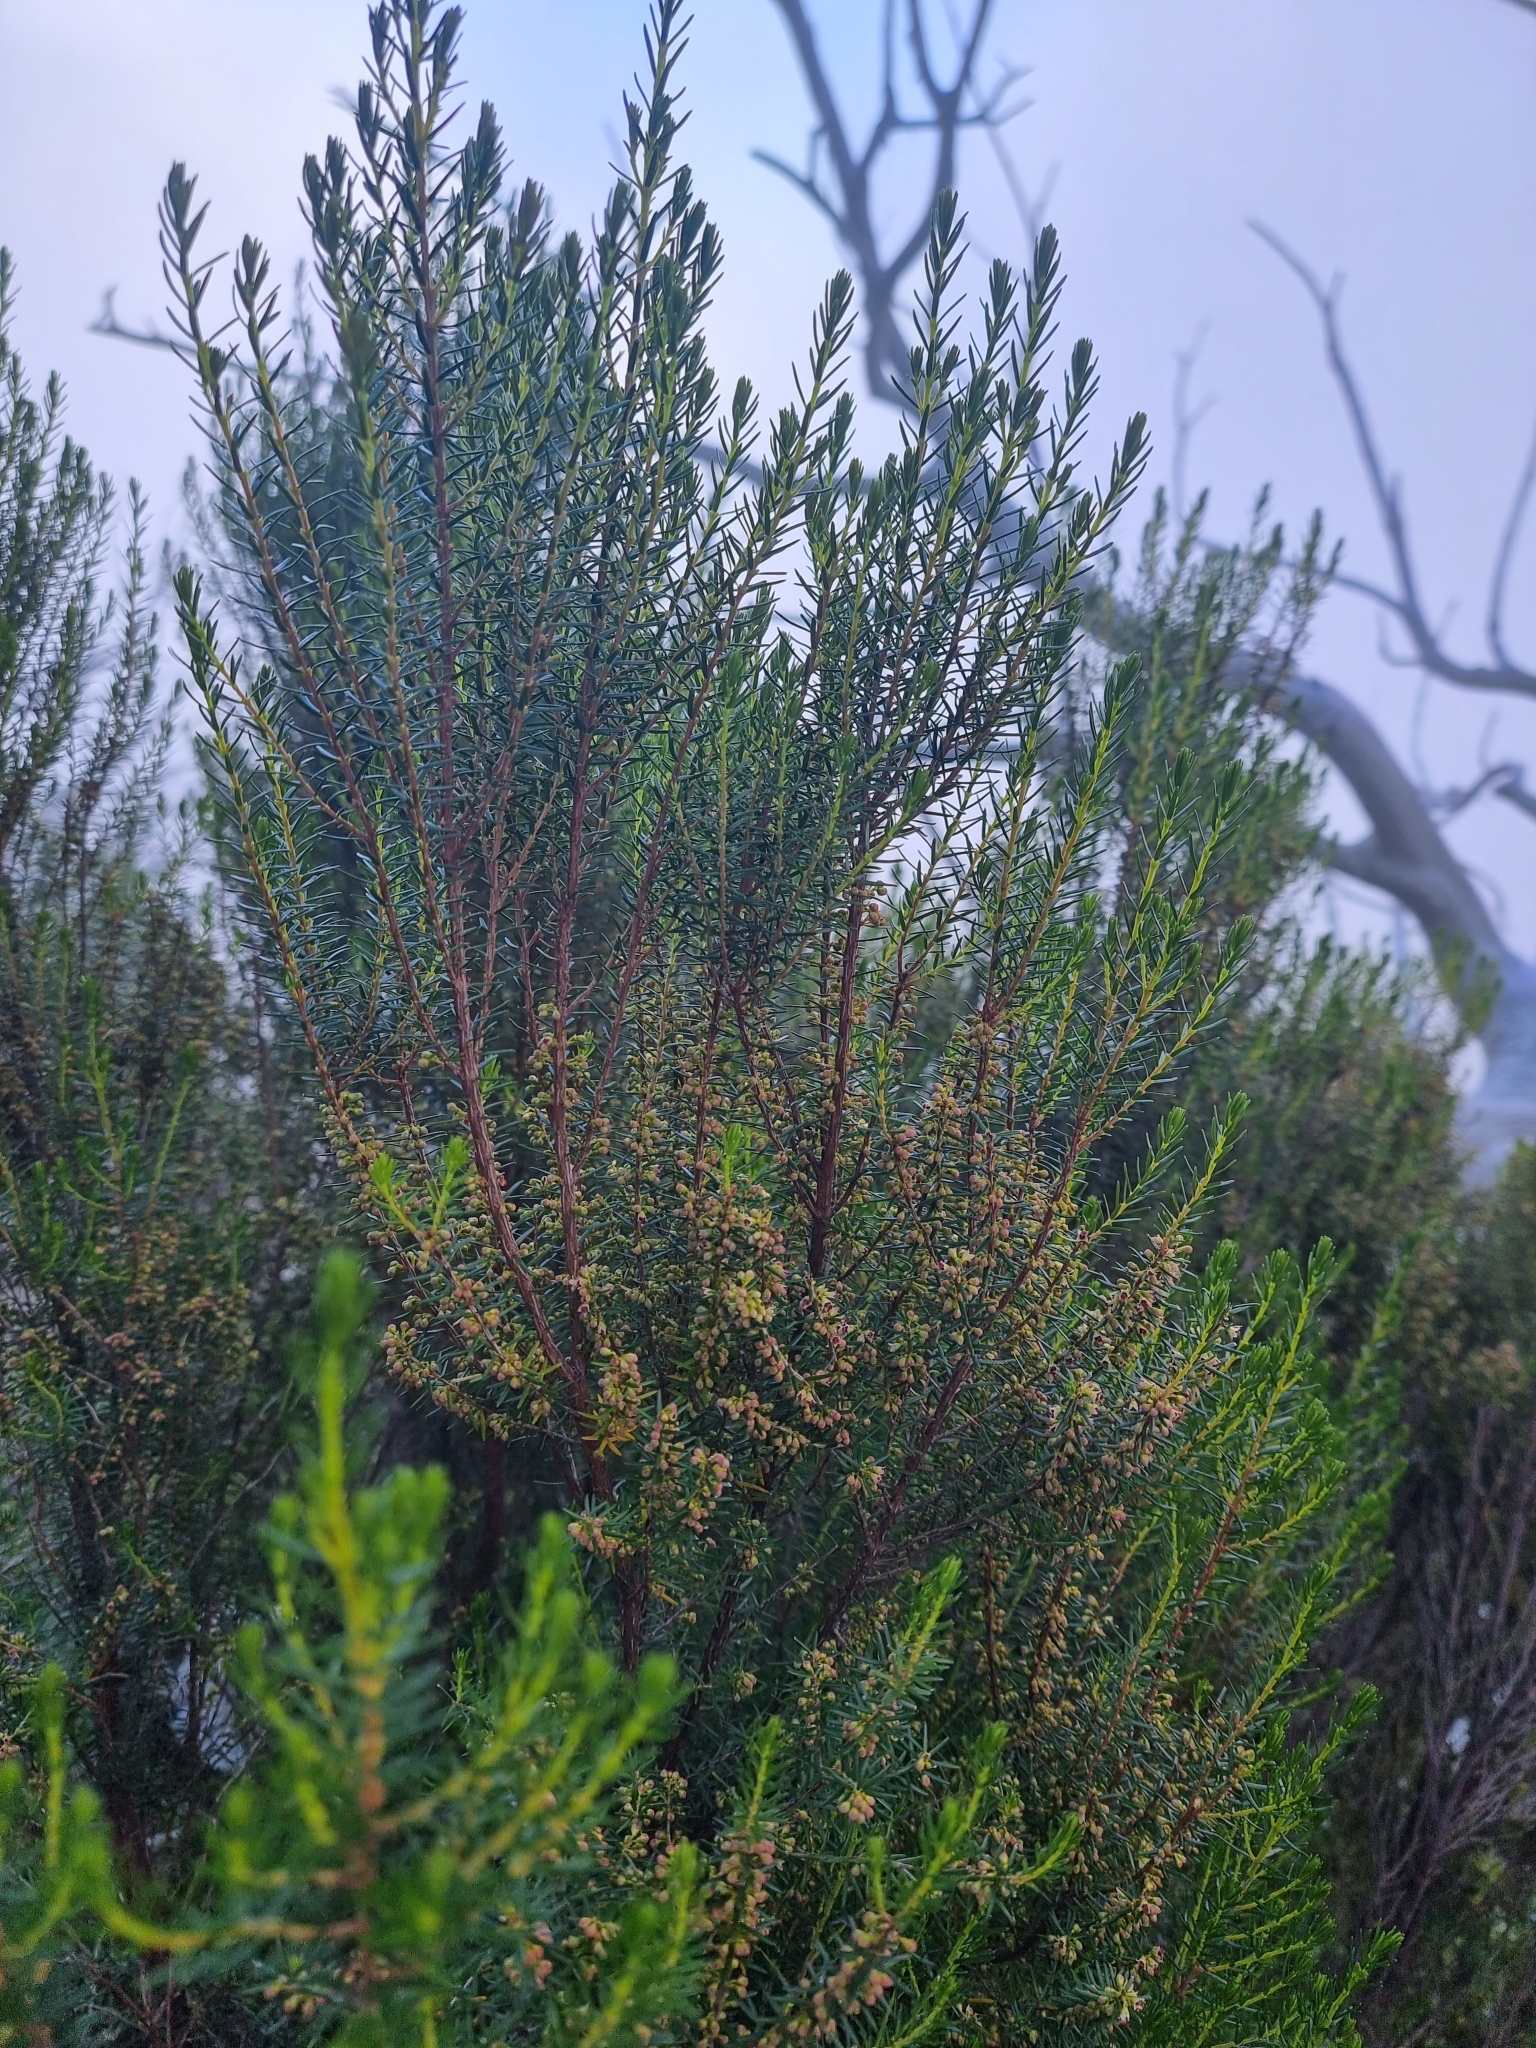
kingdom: Plantae
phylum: Tracheophyta
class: Magnoliopsida
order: Ericales
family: Ericaceae
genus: Erica
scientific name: Erica platycodon
